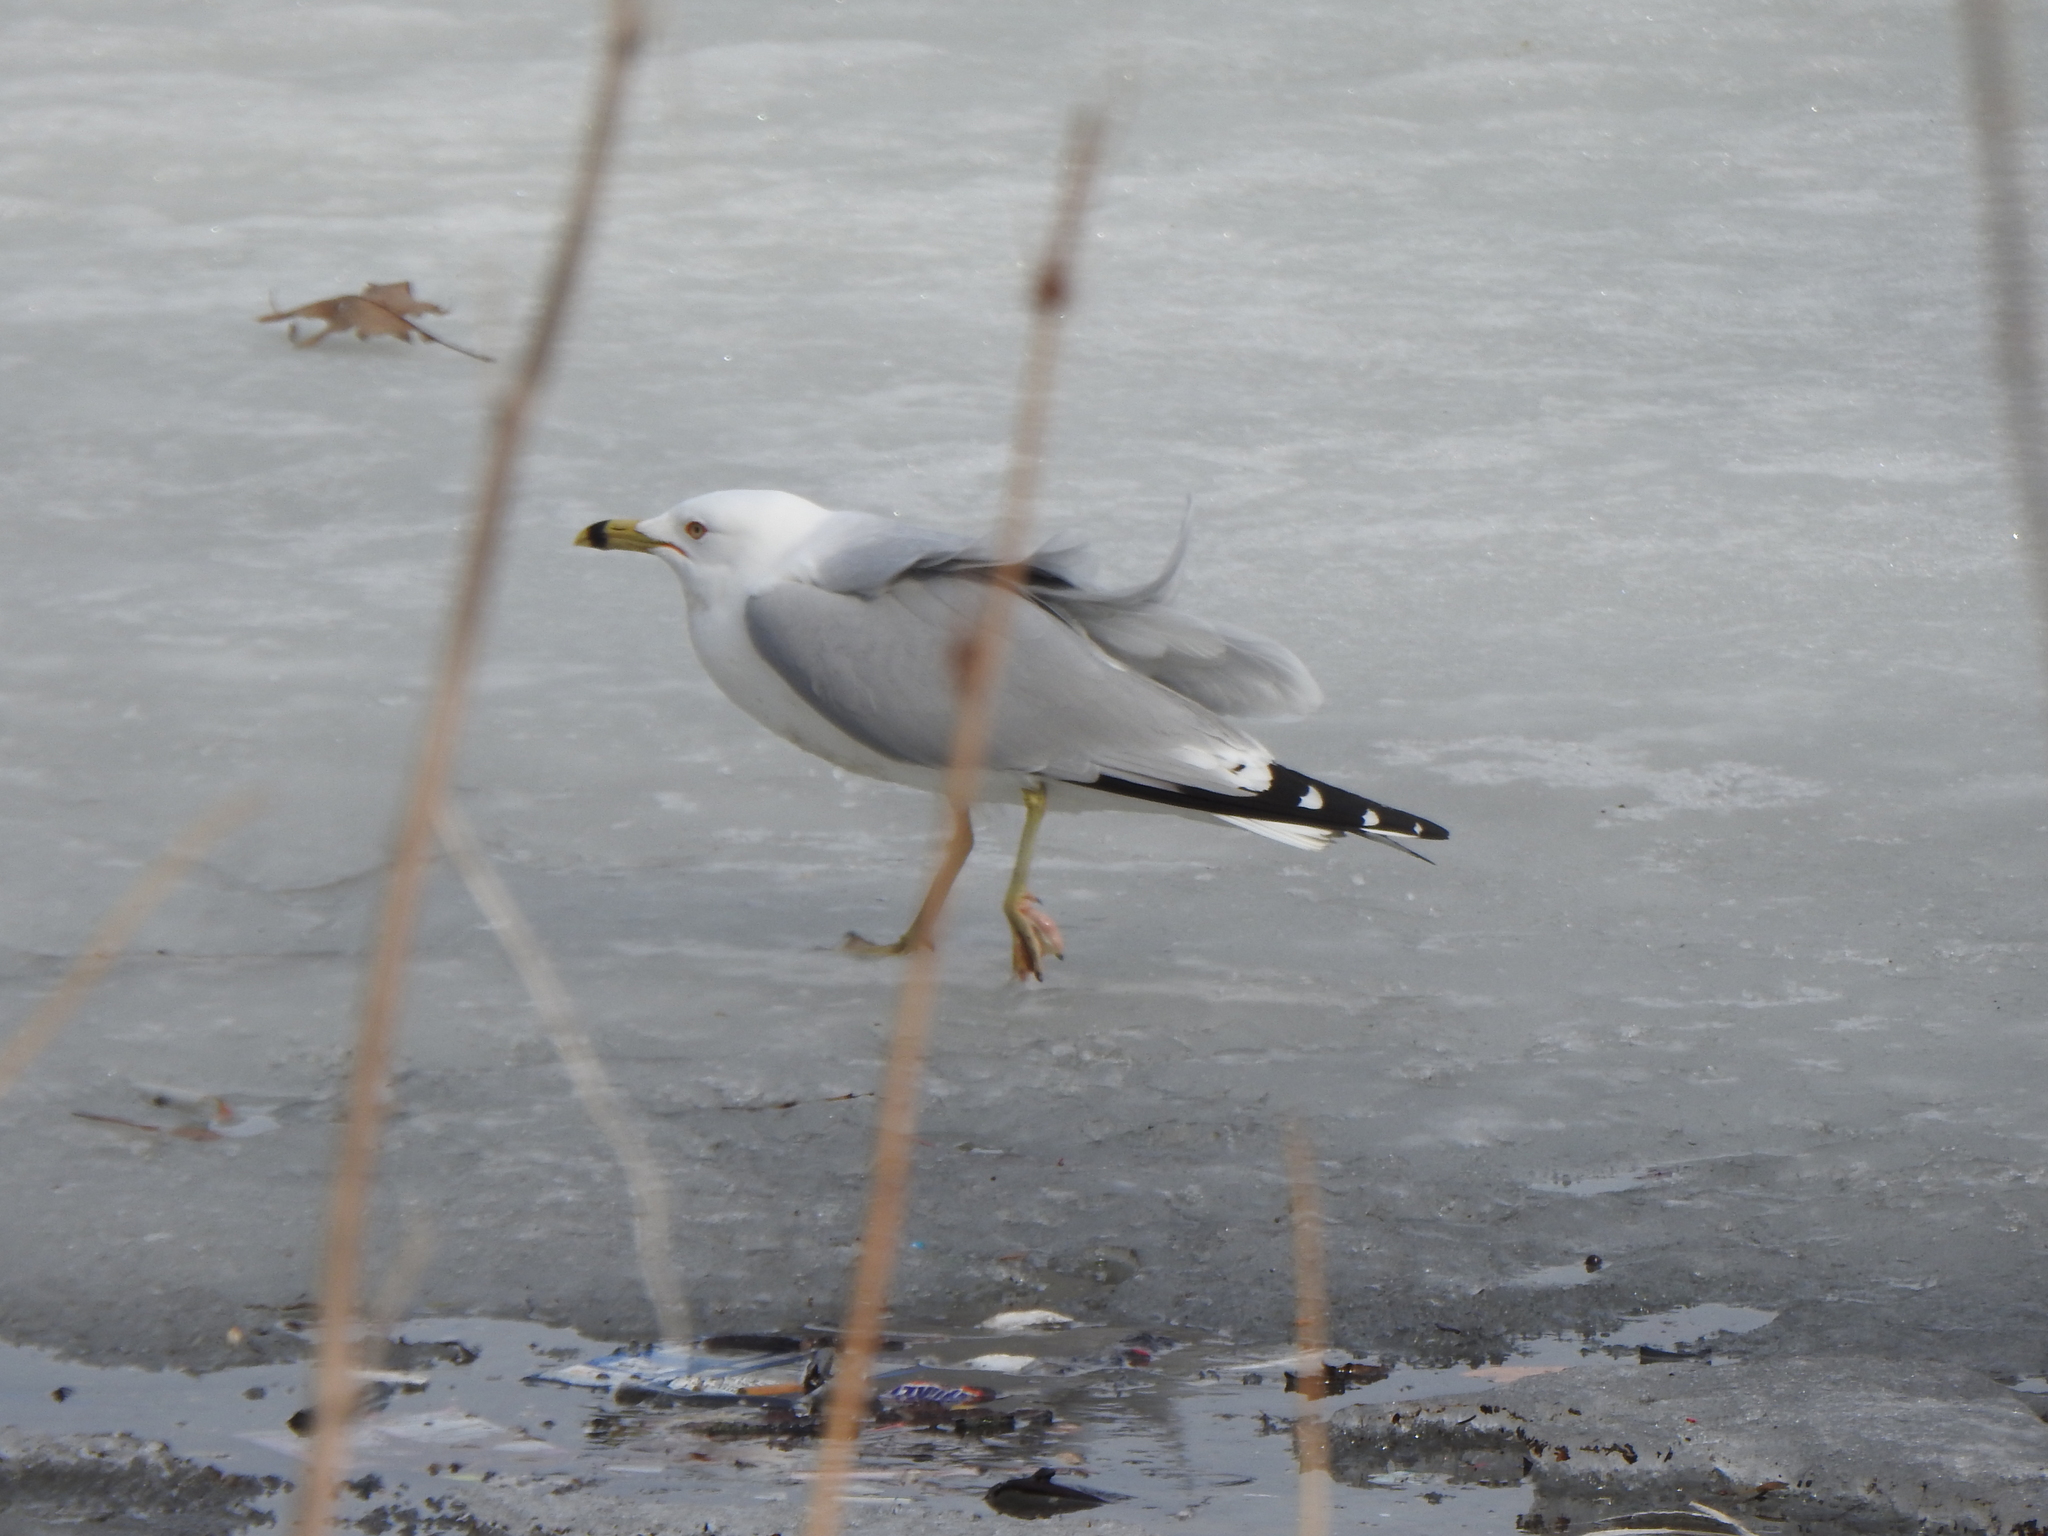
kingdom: Animalia
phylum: Chordata
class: Aves
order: Charadriiformes
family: Laridae
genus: Larus
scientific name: Larus delawarensis
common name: Ring-billed gull
